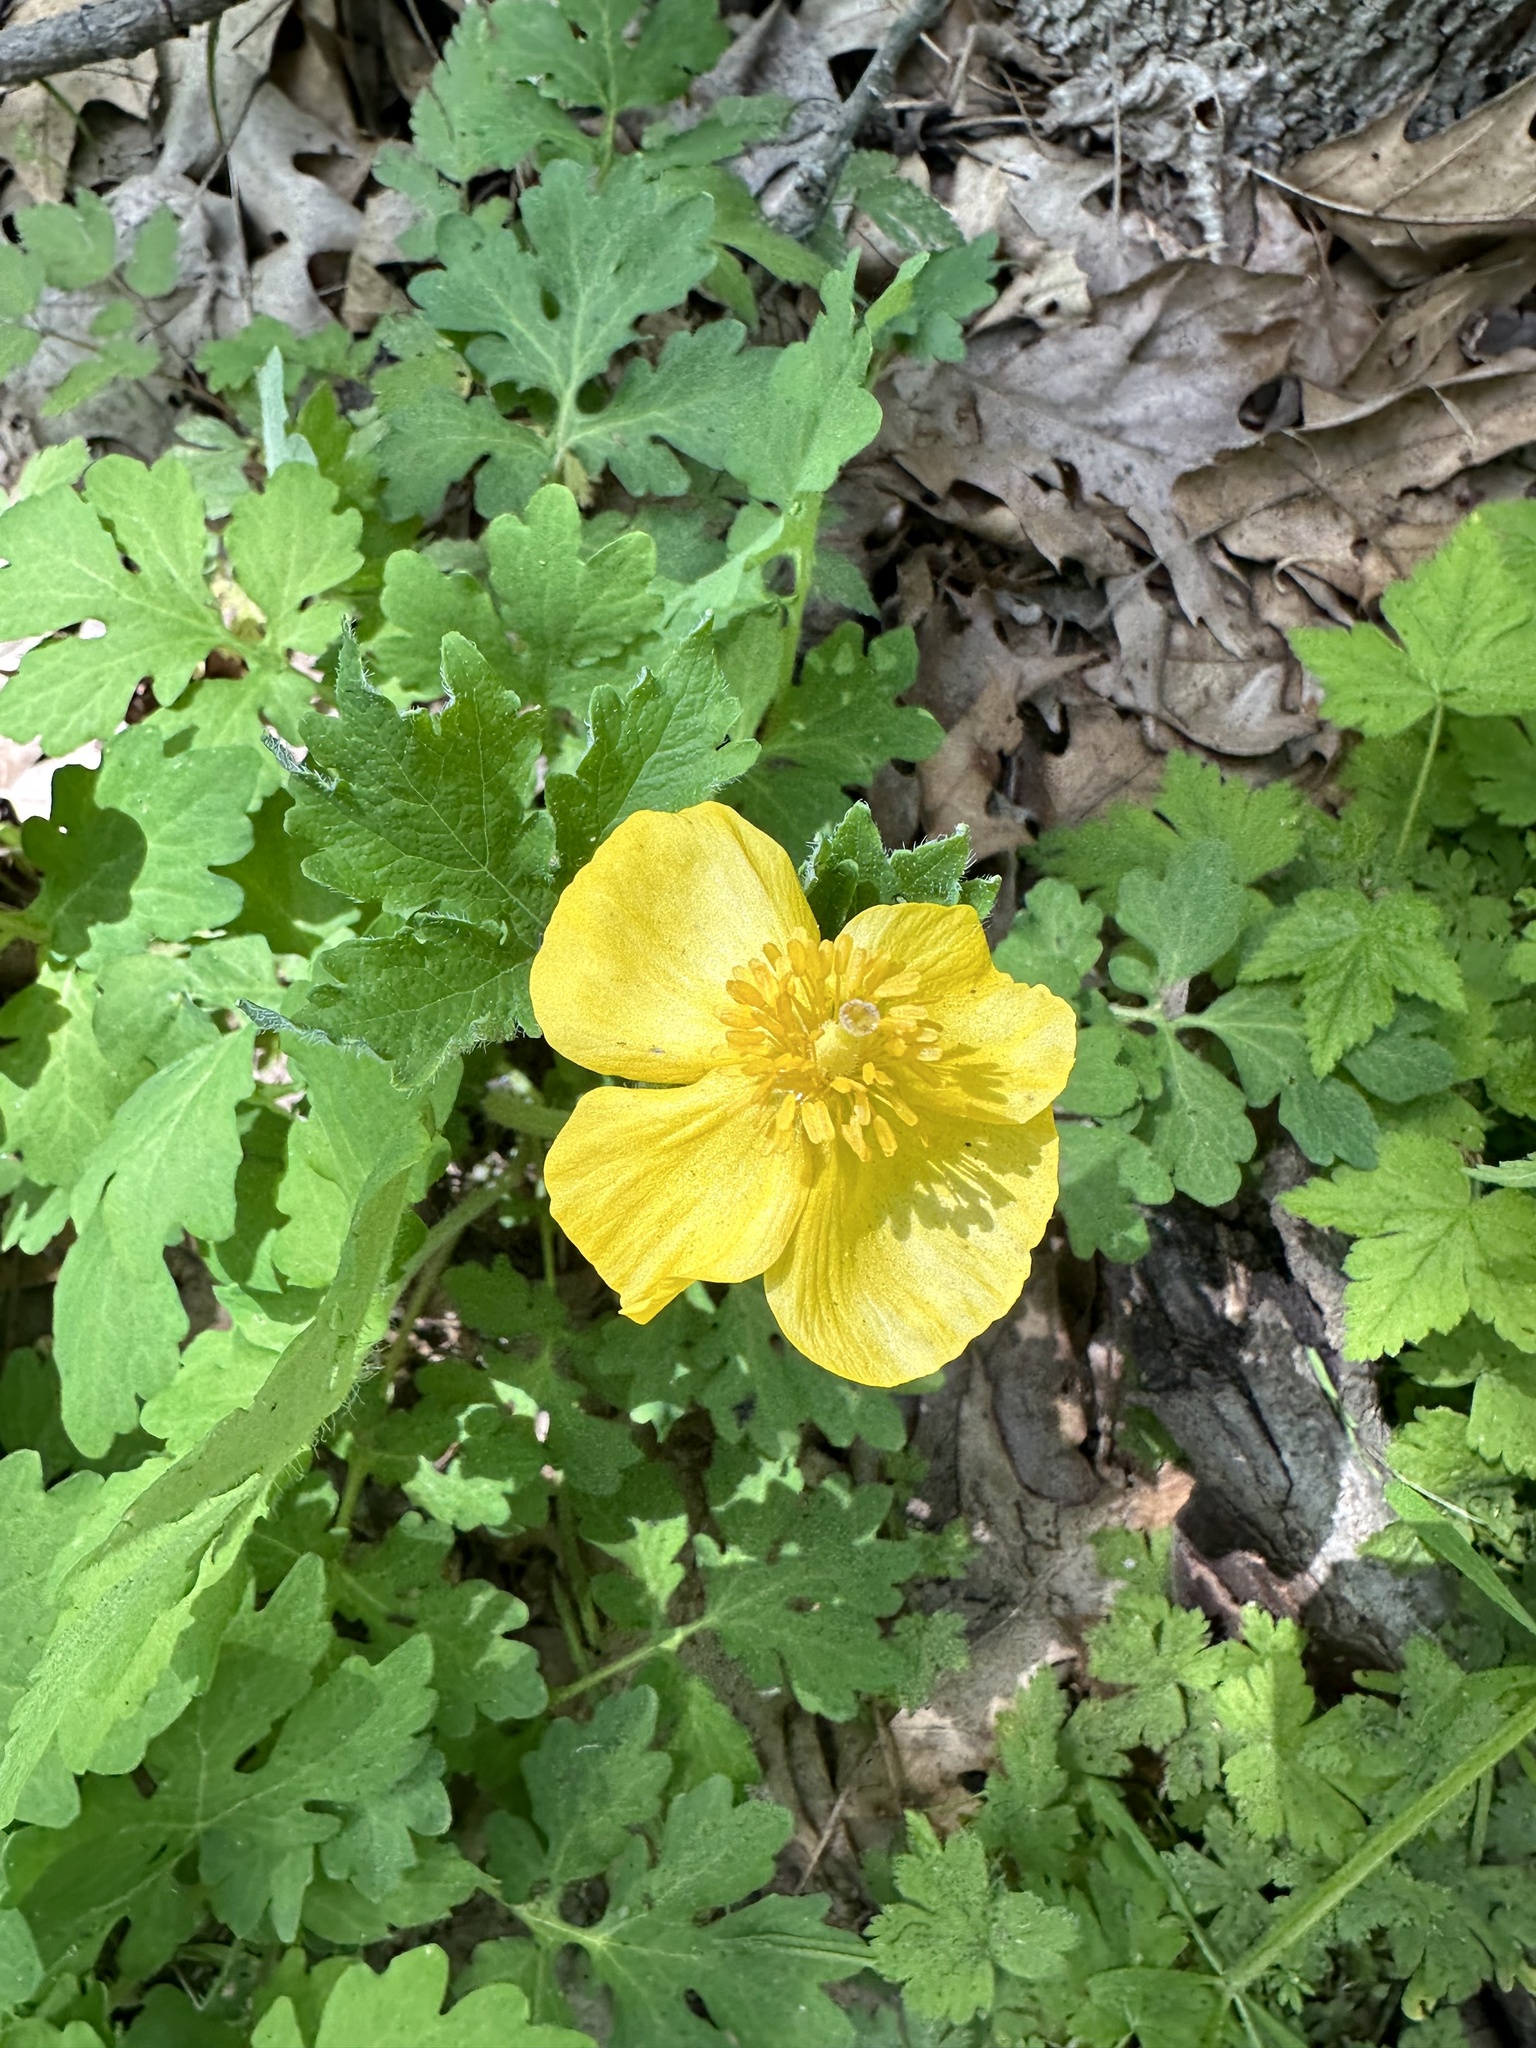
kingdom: Plantae
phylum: Tracheophyta
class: Magnoliopsida
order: Ranunculales
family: Papaveraceae
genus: Stylophorum
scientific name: Stylophorum diphyllum
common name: Celandine poppy
